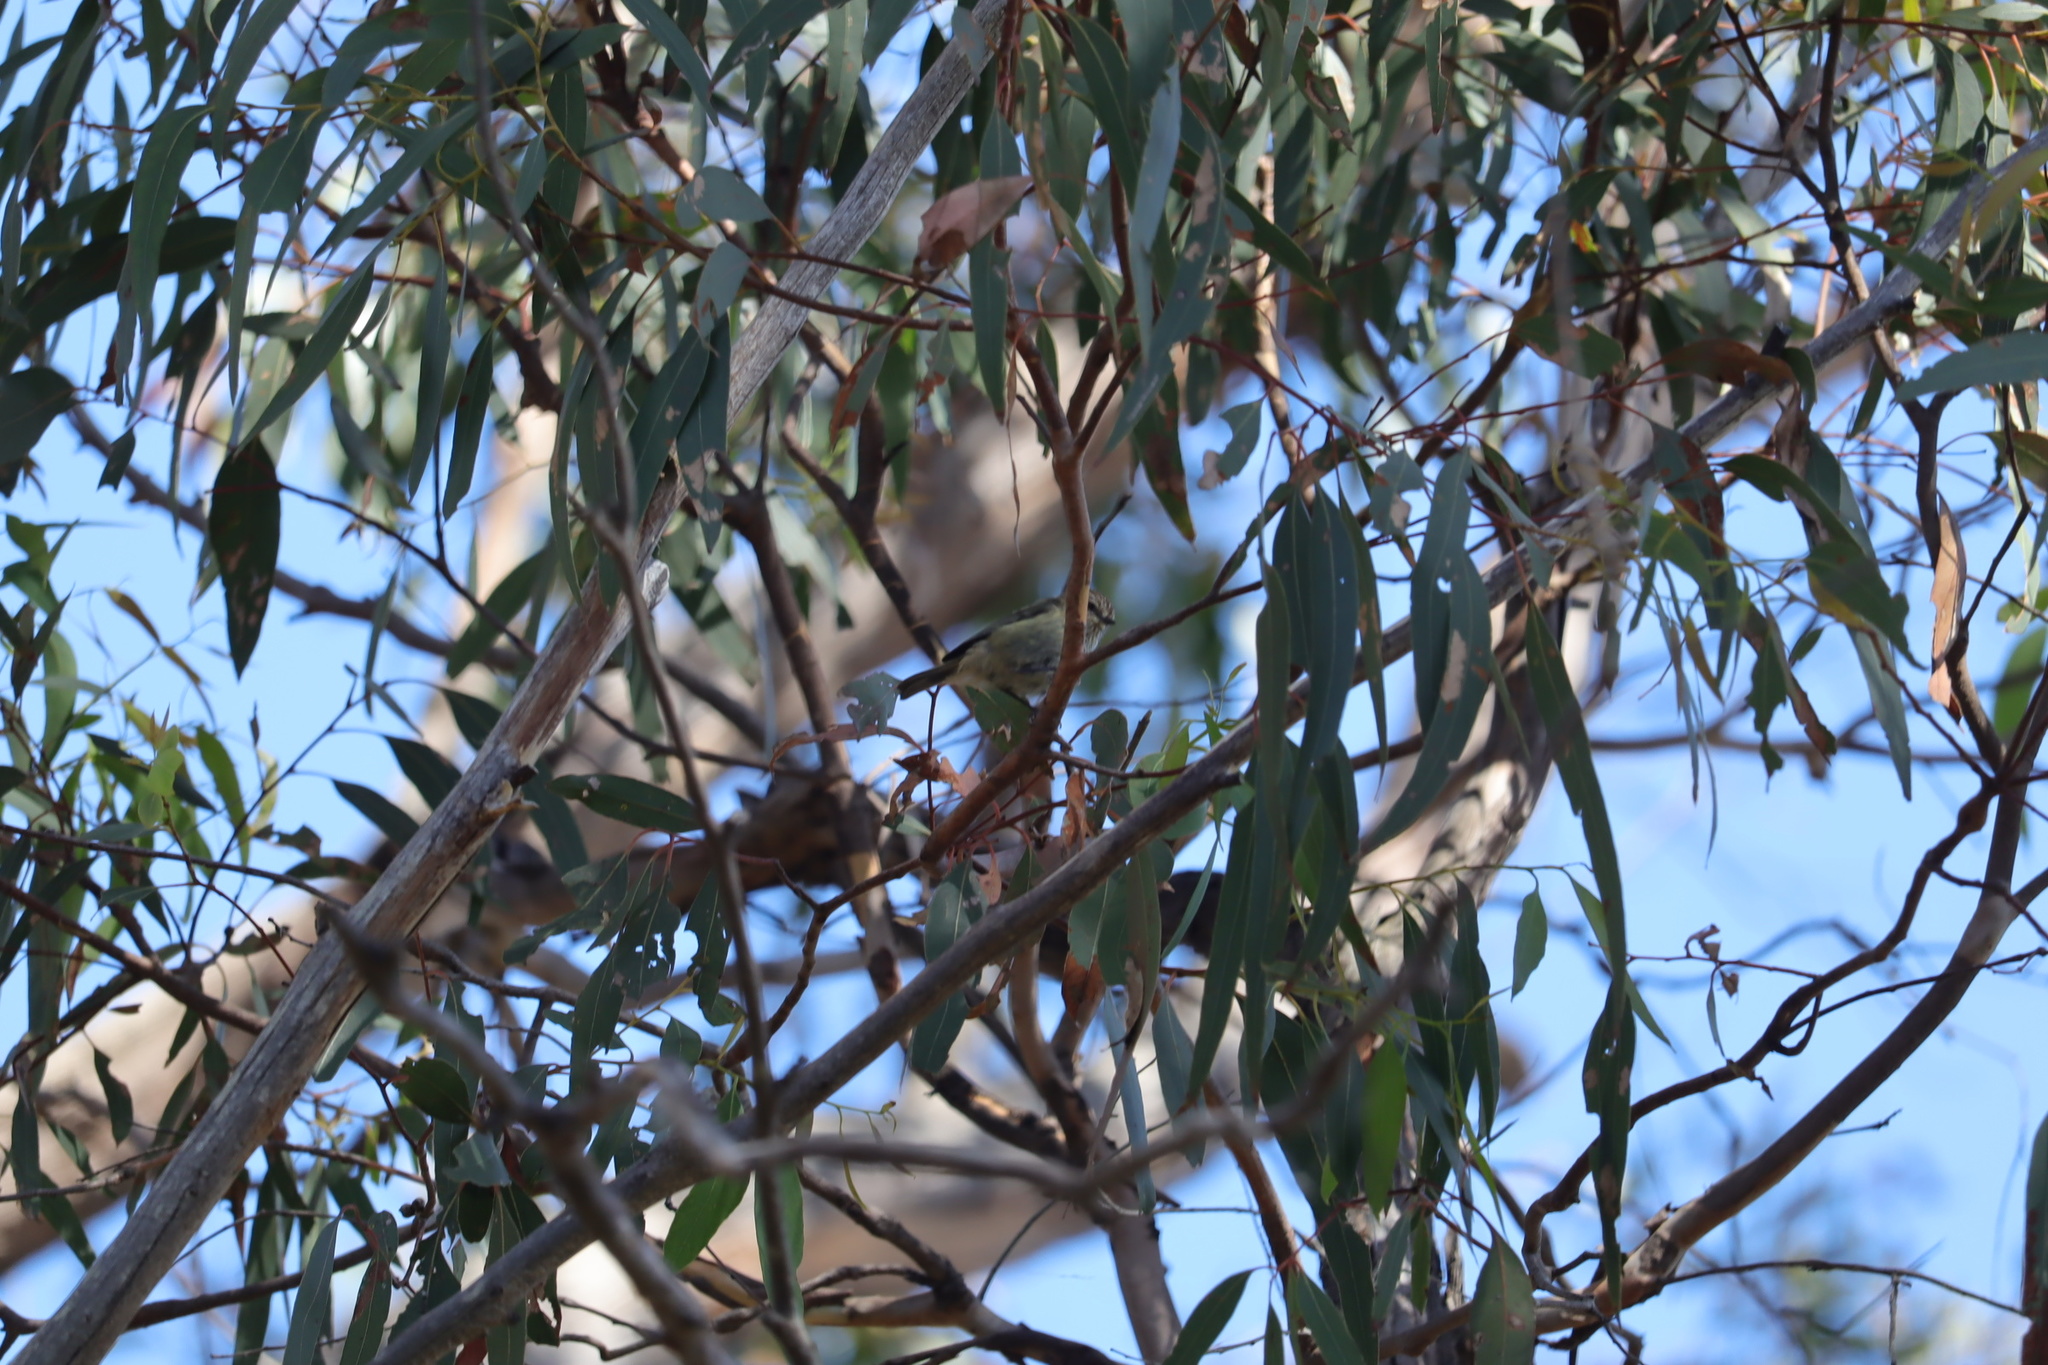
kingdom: Animalia
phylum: Chordata
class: Aves
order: Passeriformes
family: Acanthizidae
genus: Acanthiza
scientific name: Acanthiza lineata
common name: Striated thornbill
